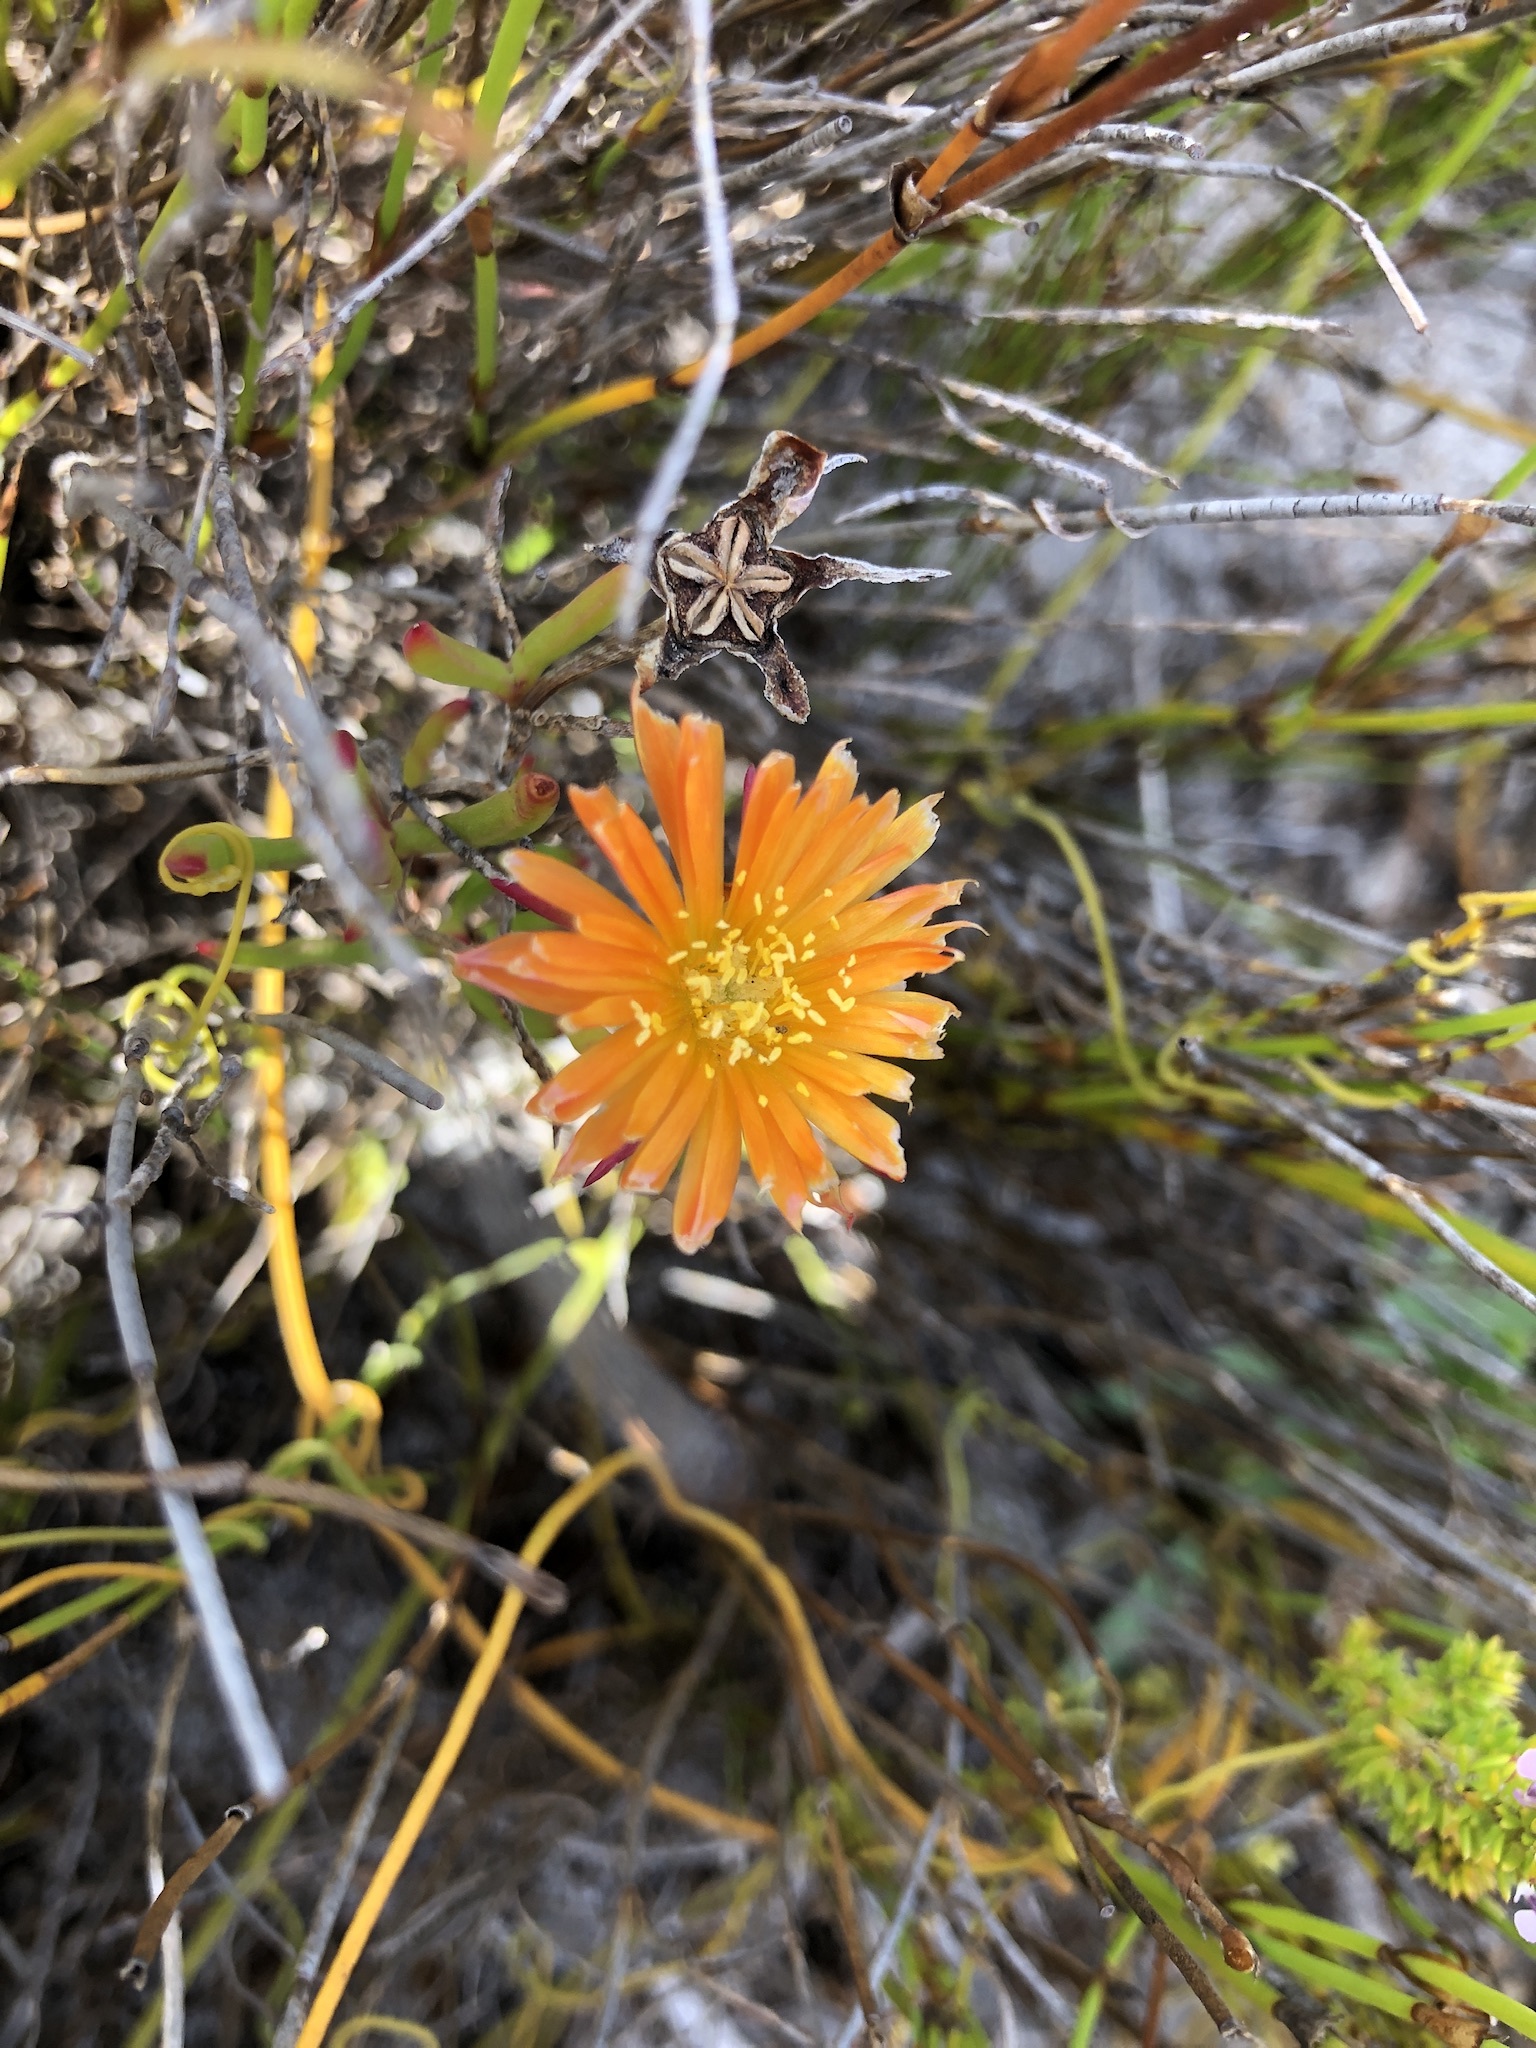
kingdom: Plantae
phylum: Tracheophyta
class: Magnoliopsida
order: Caryophyllales
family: Aizoaceae
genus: Lampranthus
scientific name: Lampranthus bicolor
